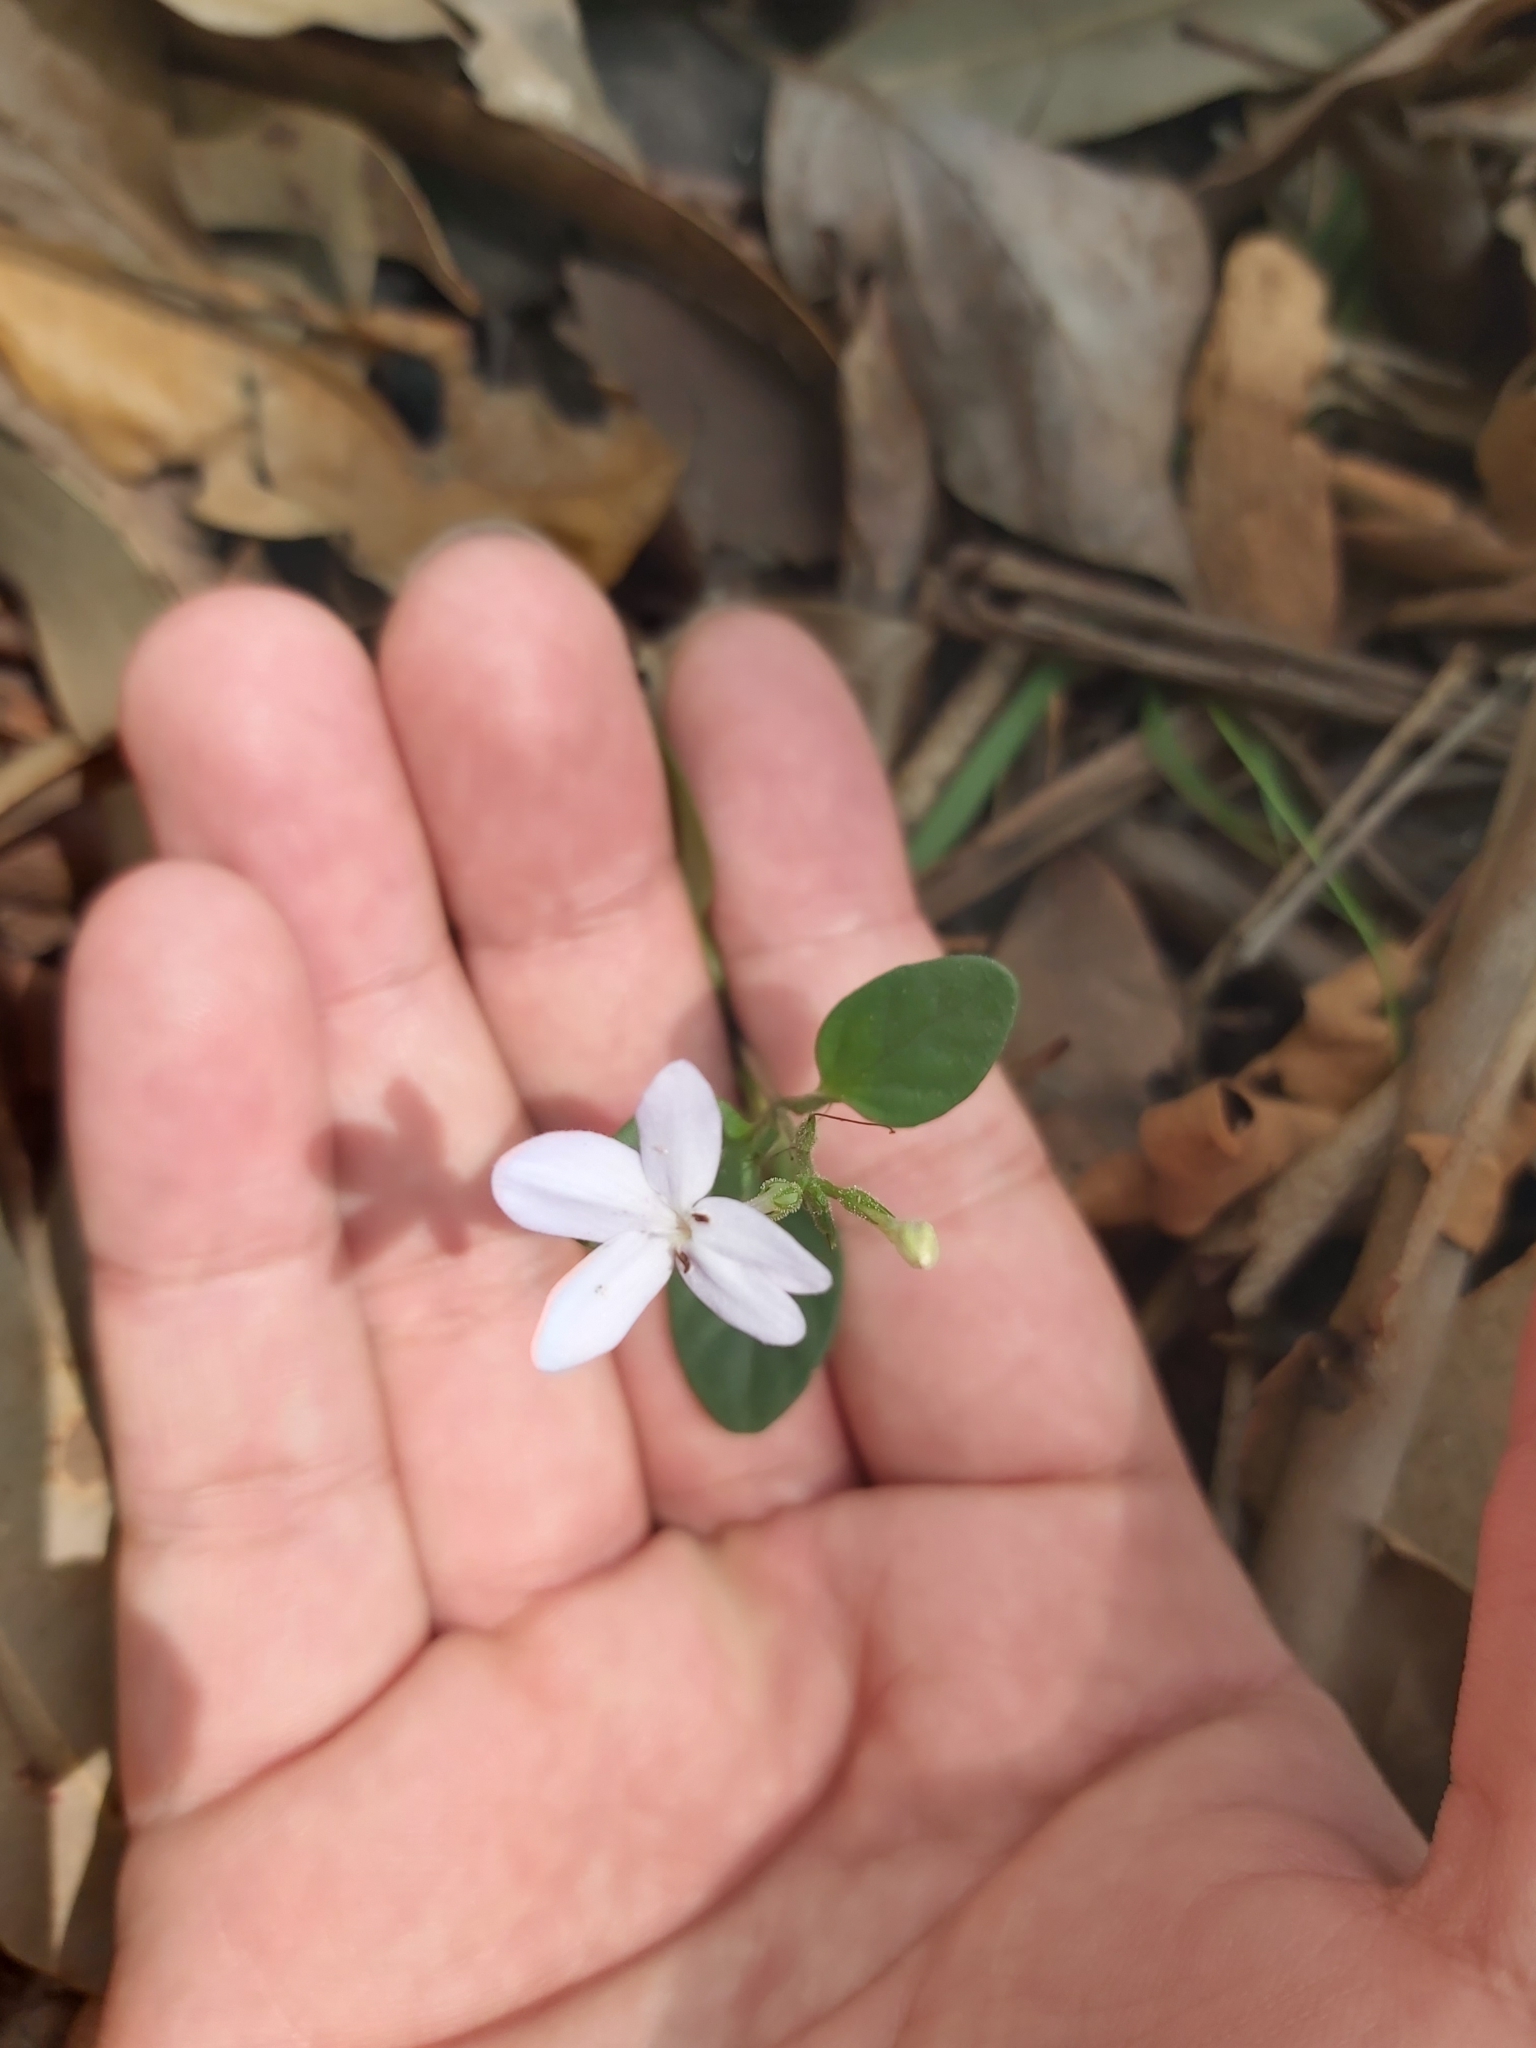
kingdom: Plantae
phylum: Tracheophyta
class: Magnoliopsida
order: Lamiales
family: Acanthaceae
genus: Pseuderanthemum
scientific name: Pseuderanthemum variabile
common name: Night and afternoon
